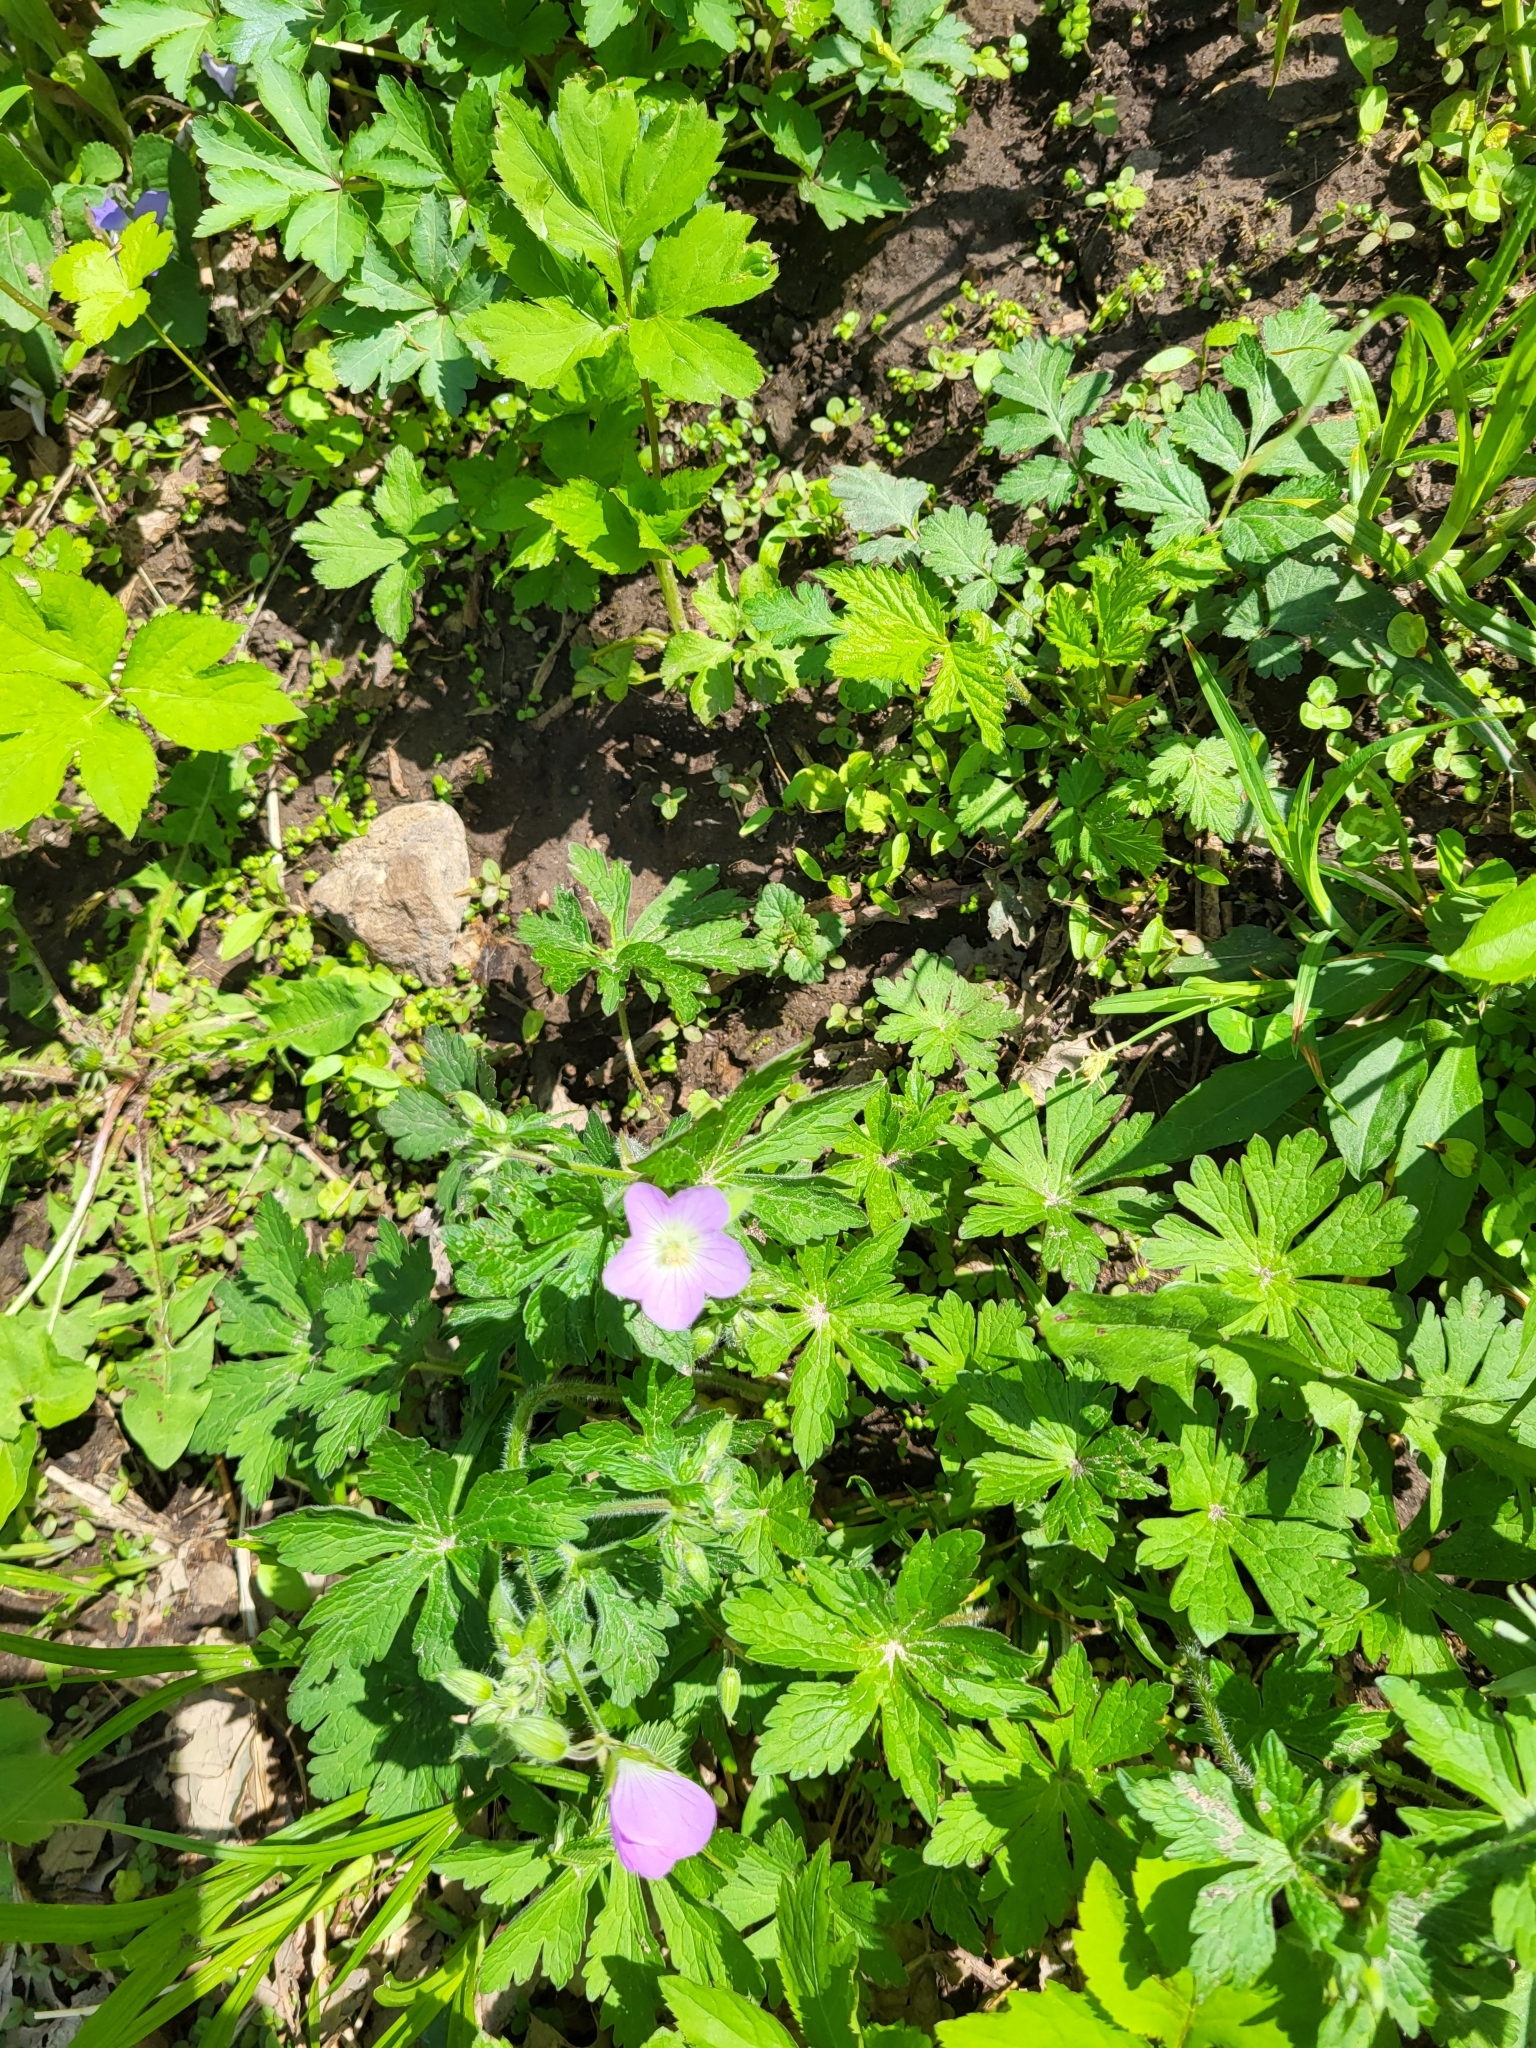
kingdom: Plantae
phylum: Tracheophyta
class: Magnoliopsida
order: Geraniales
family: Geraniaceae
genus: Geranium
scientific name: Geranium maculatum
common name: Spotted geranium
